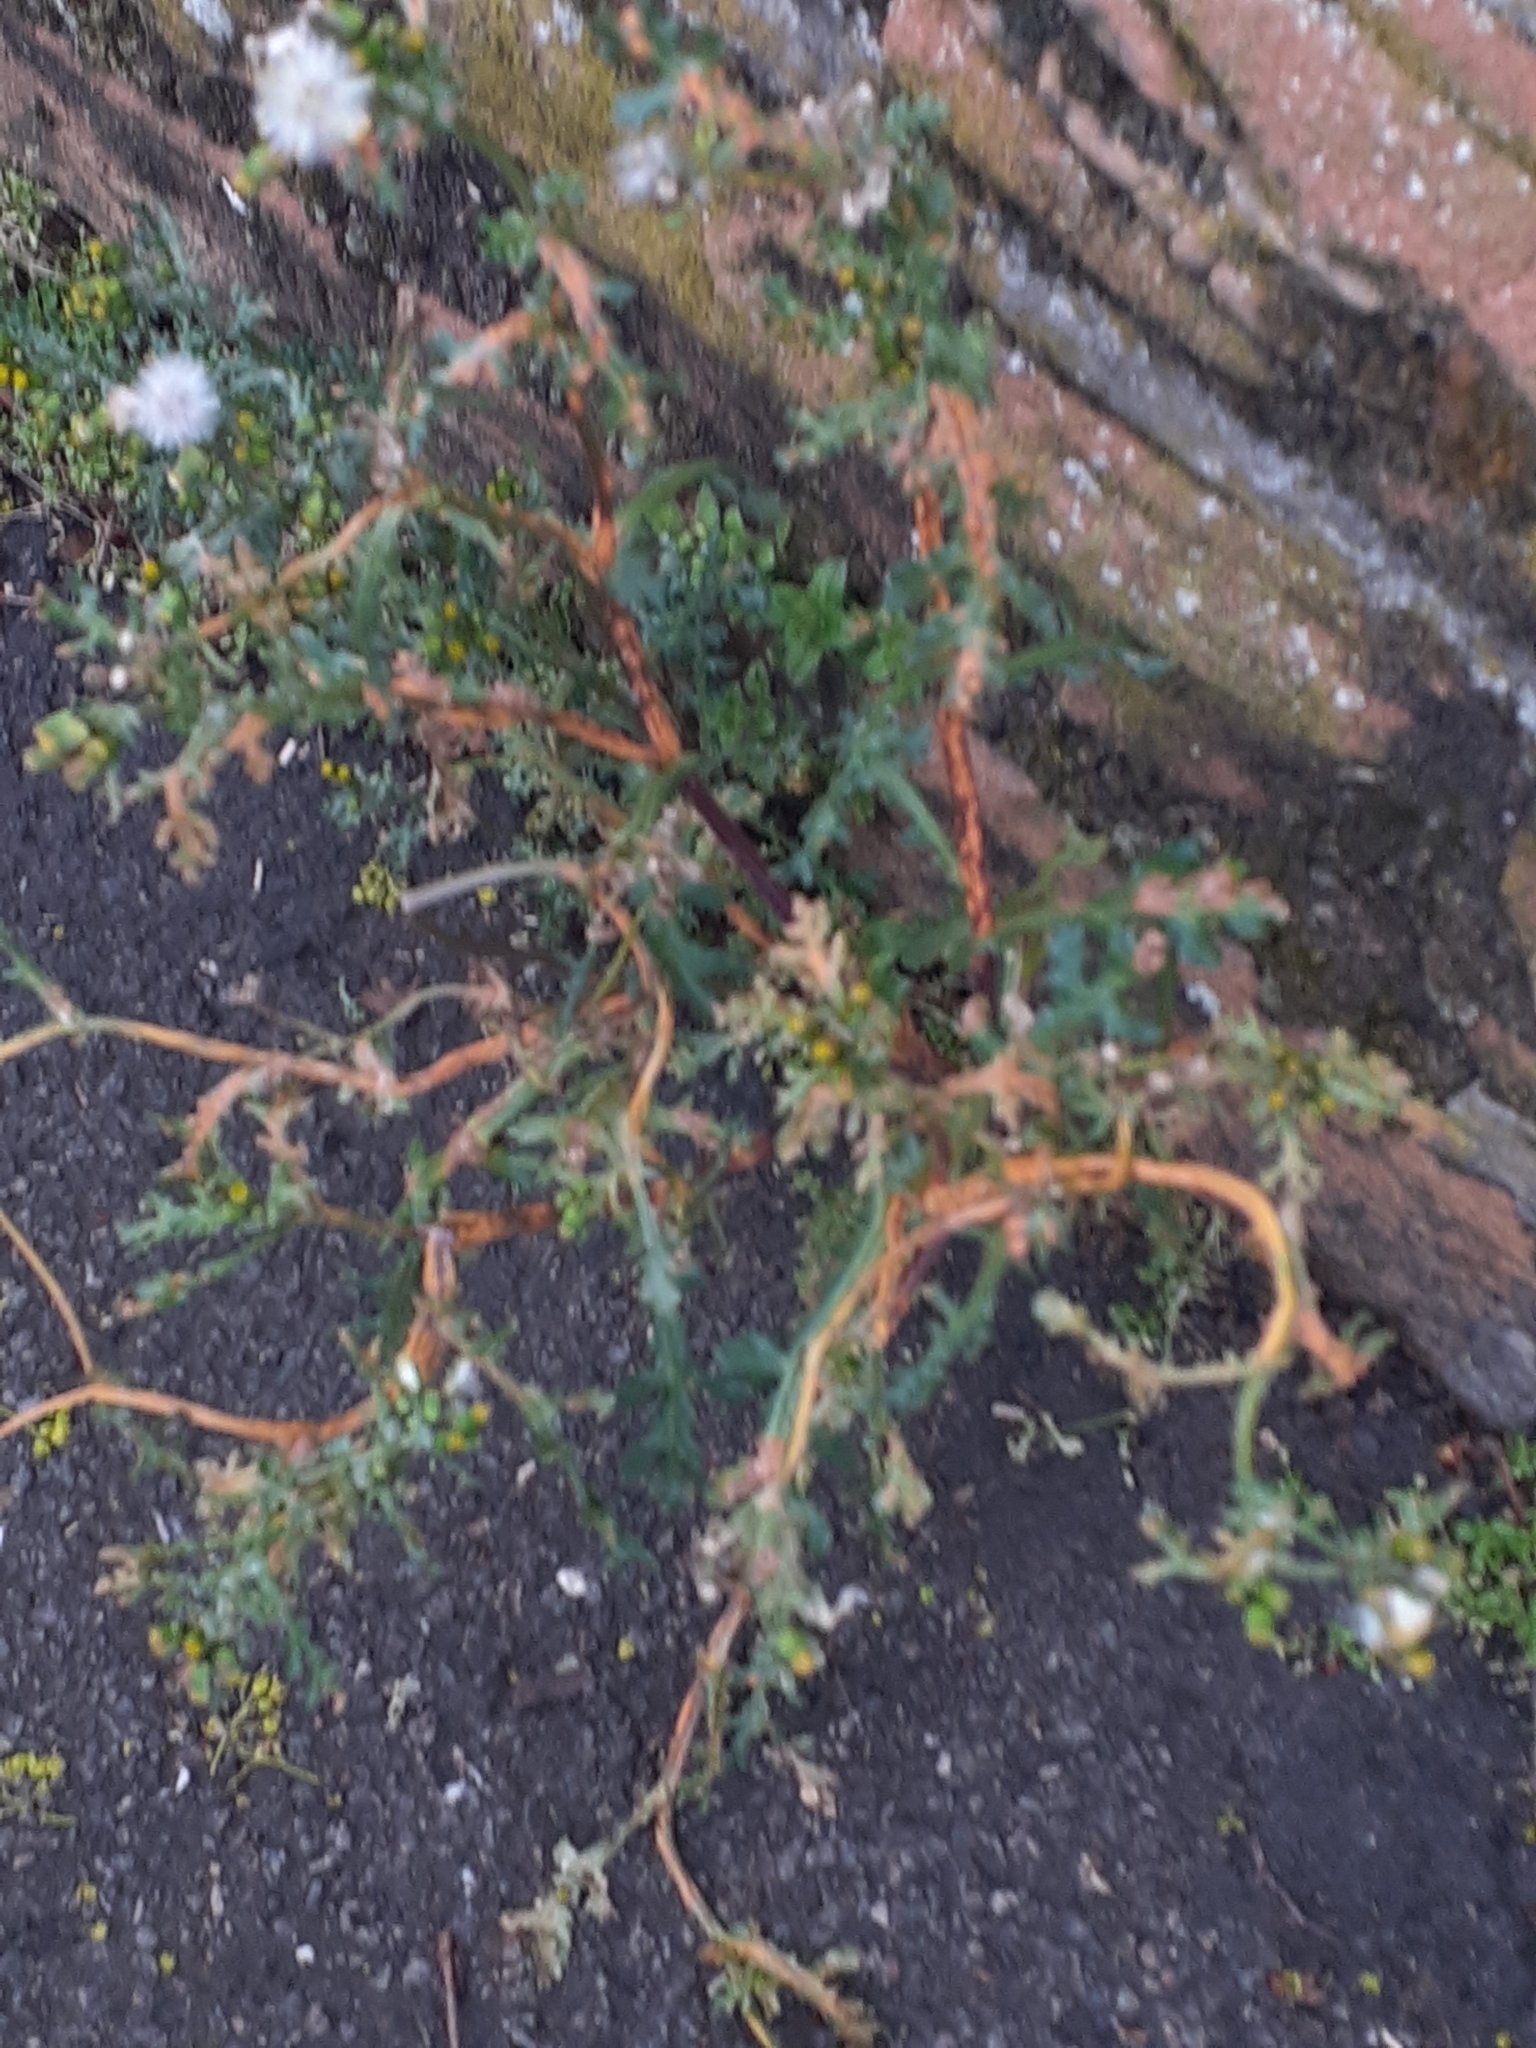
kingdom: Fungi
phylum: Basidiomycota
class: Pucciniomycetes
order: Pucciniales
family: Pucciniaceae
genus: Puccinia
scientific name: Puccinia lagenophorae
